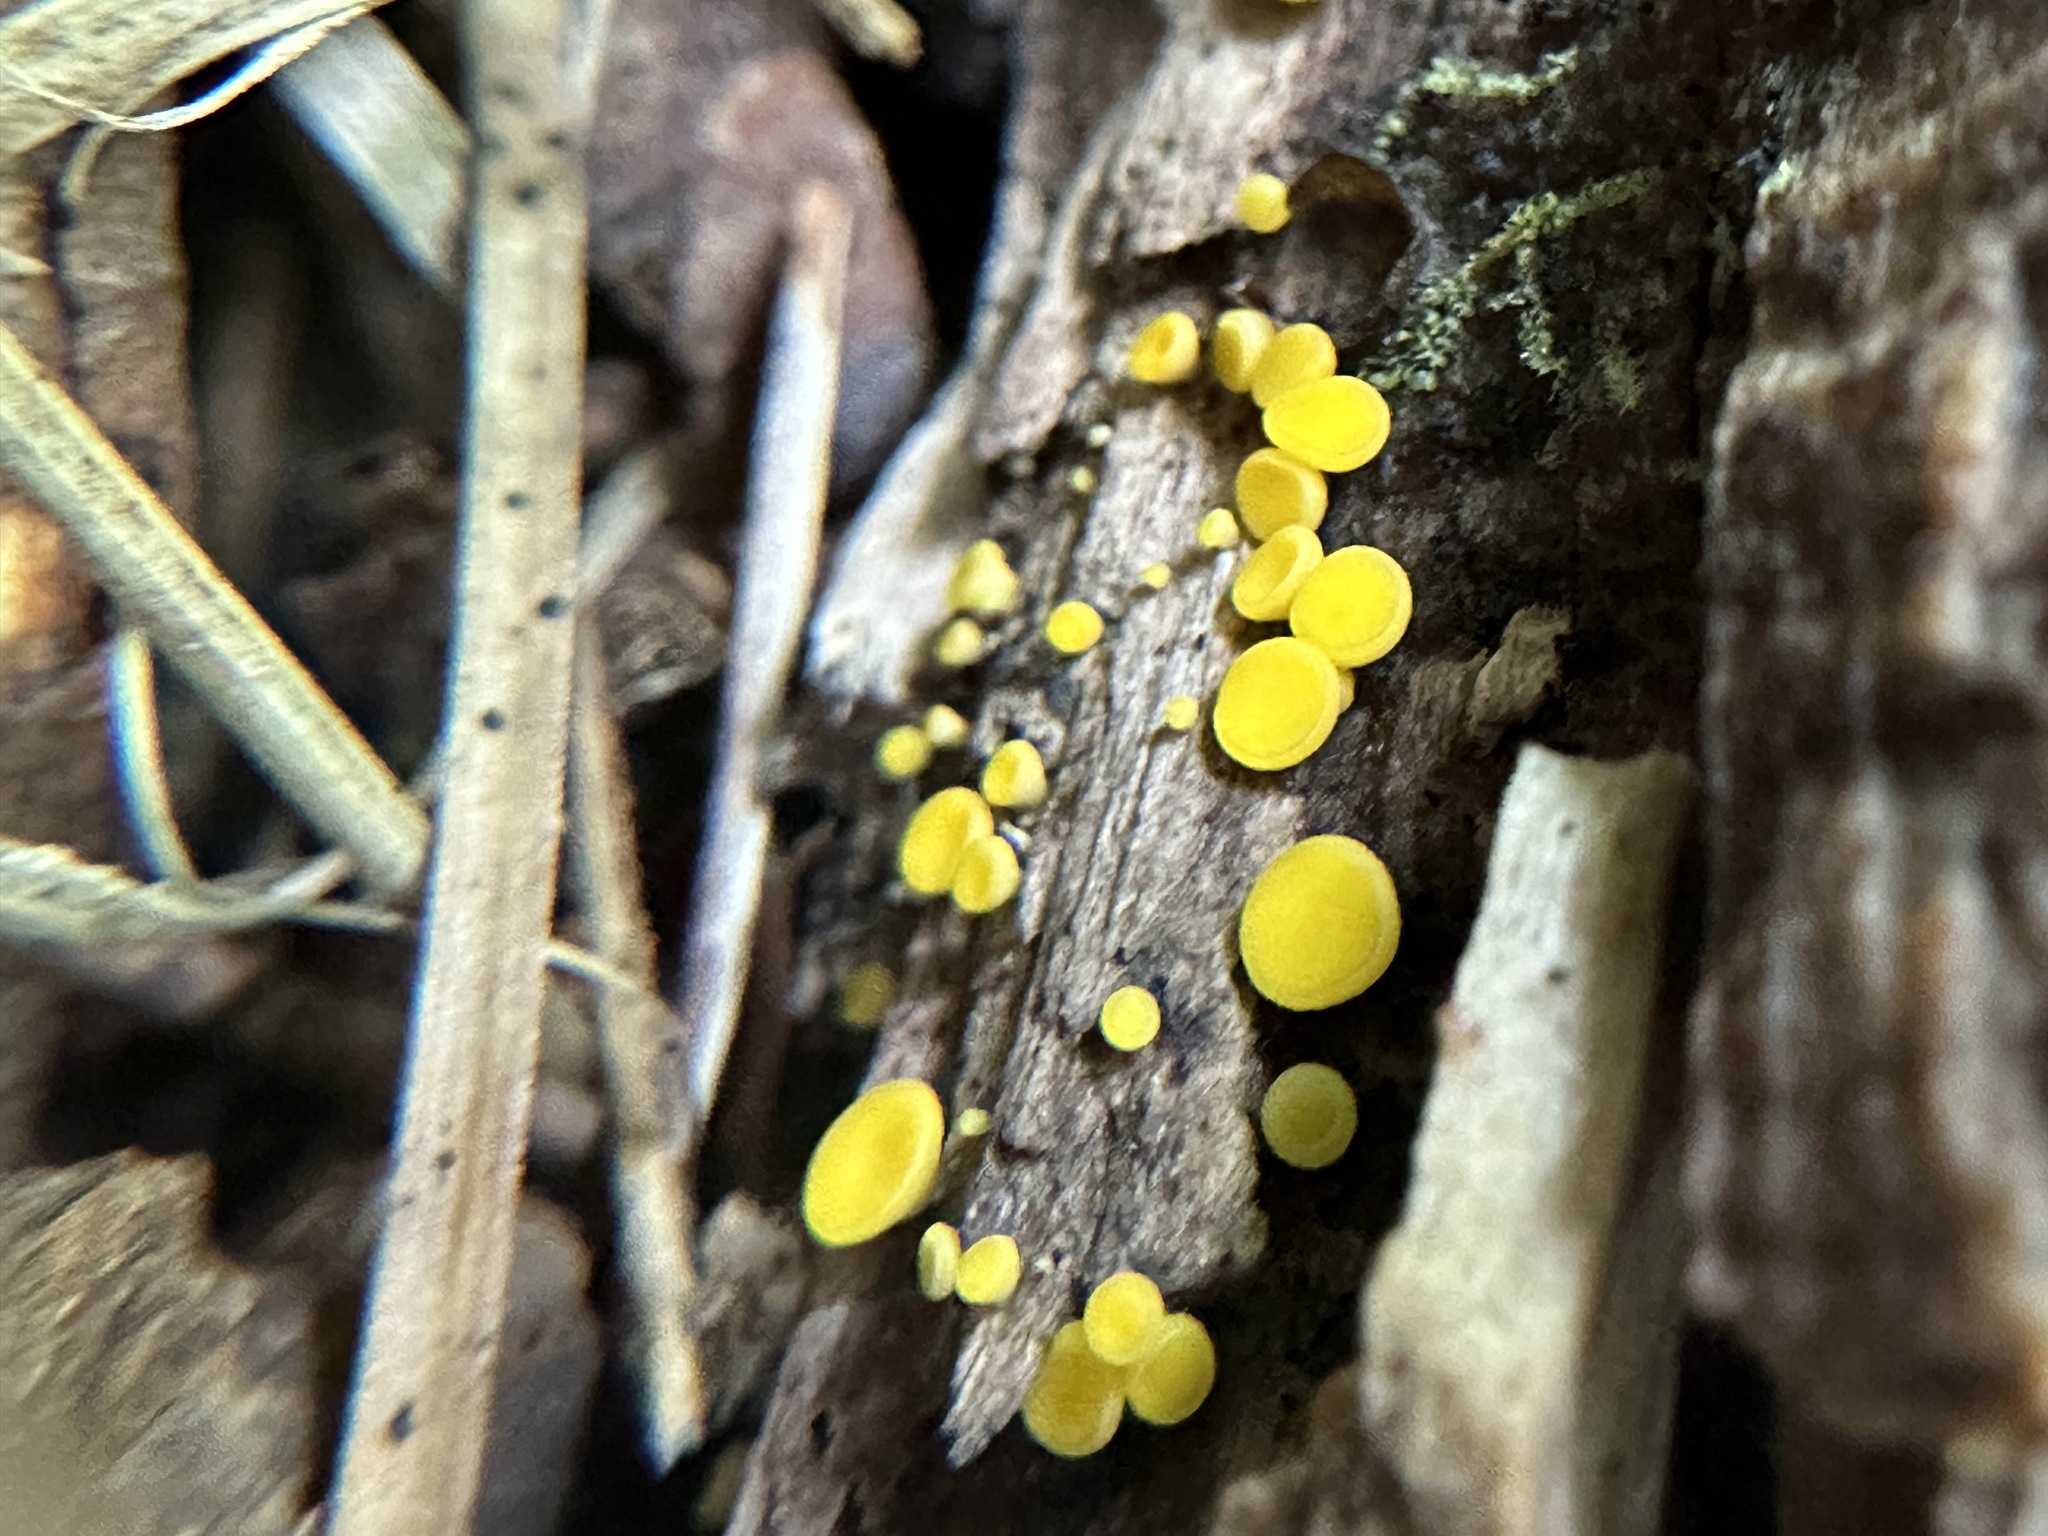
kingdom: Fungi
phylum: Ascomycota
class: Leotiomycetes
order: Helotiales
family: Pezizellaceae
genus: Calycina
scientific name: Calycina citrina
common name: Yellow fairy cups
